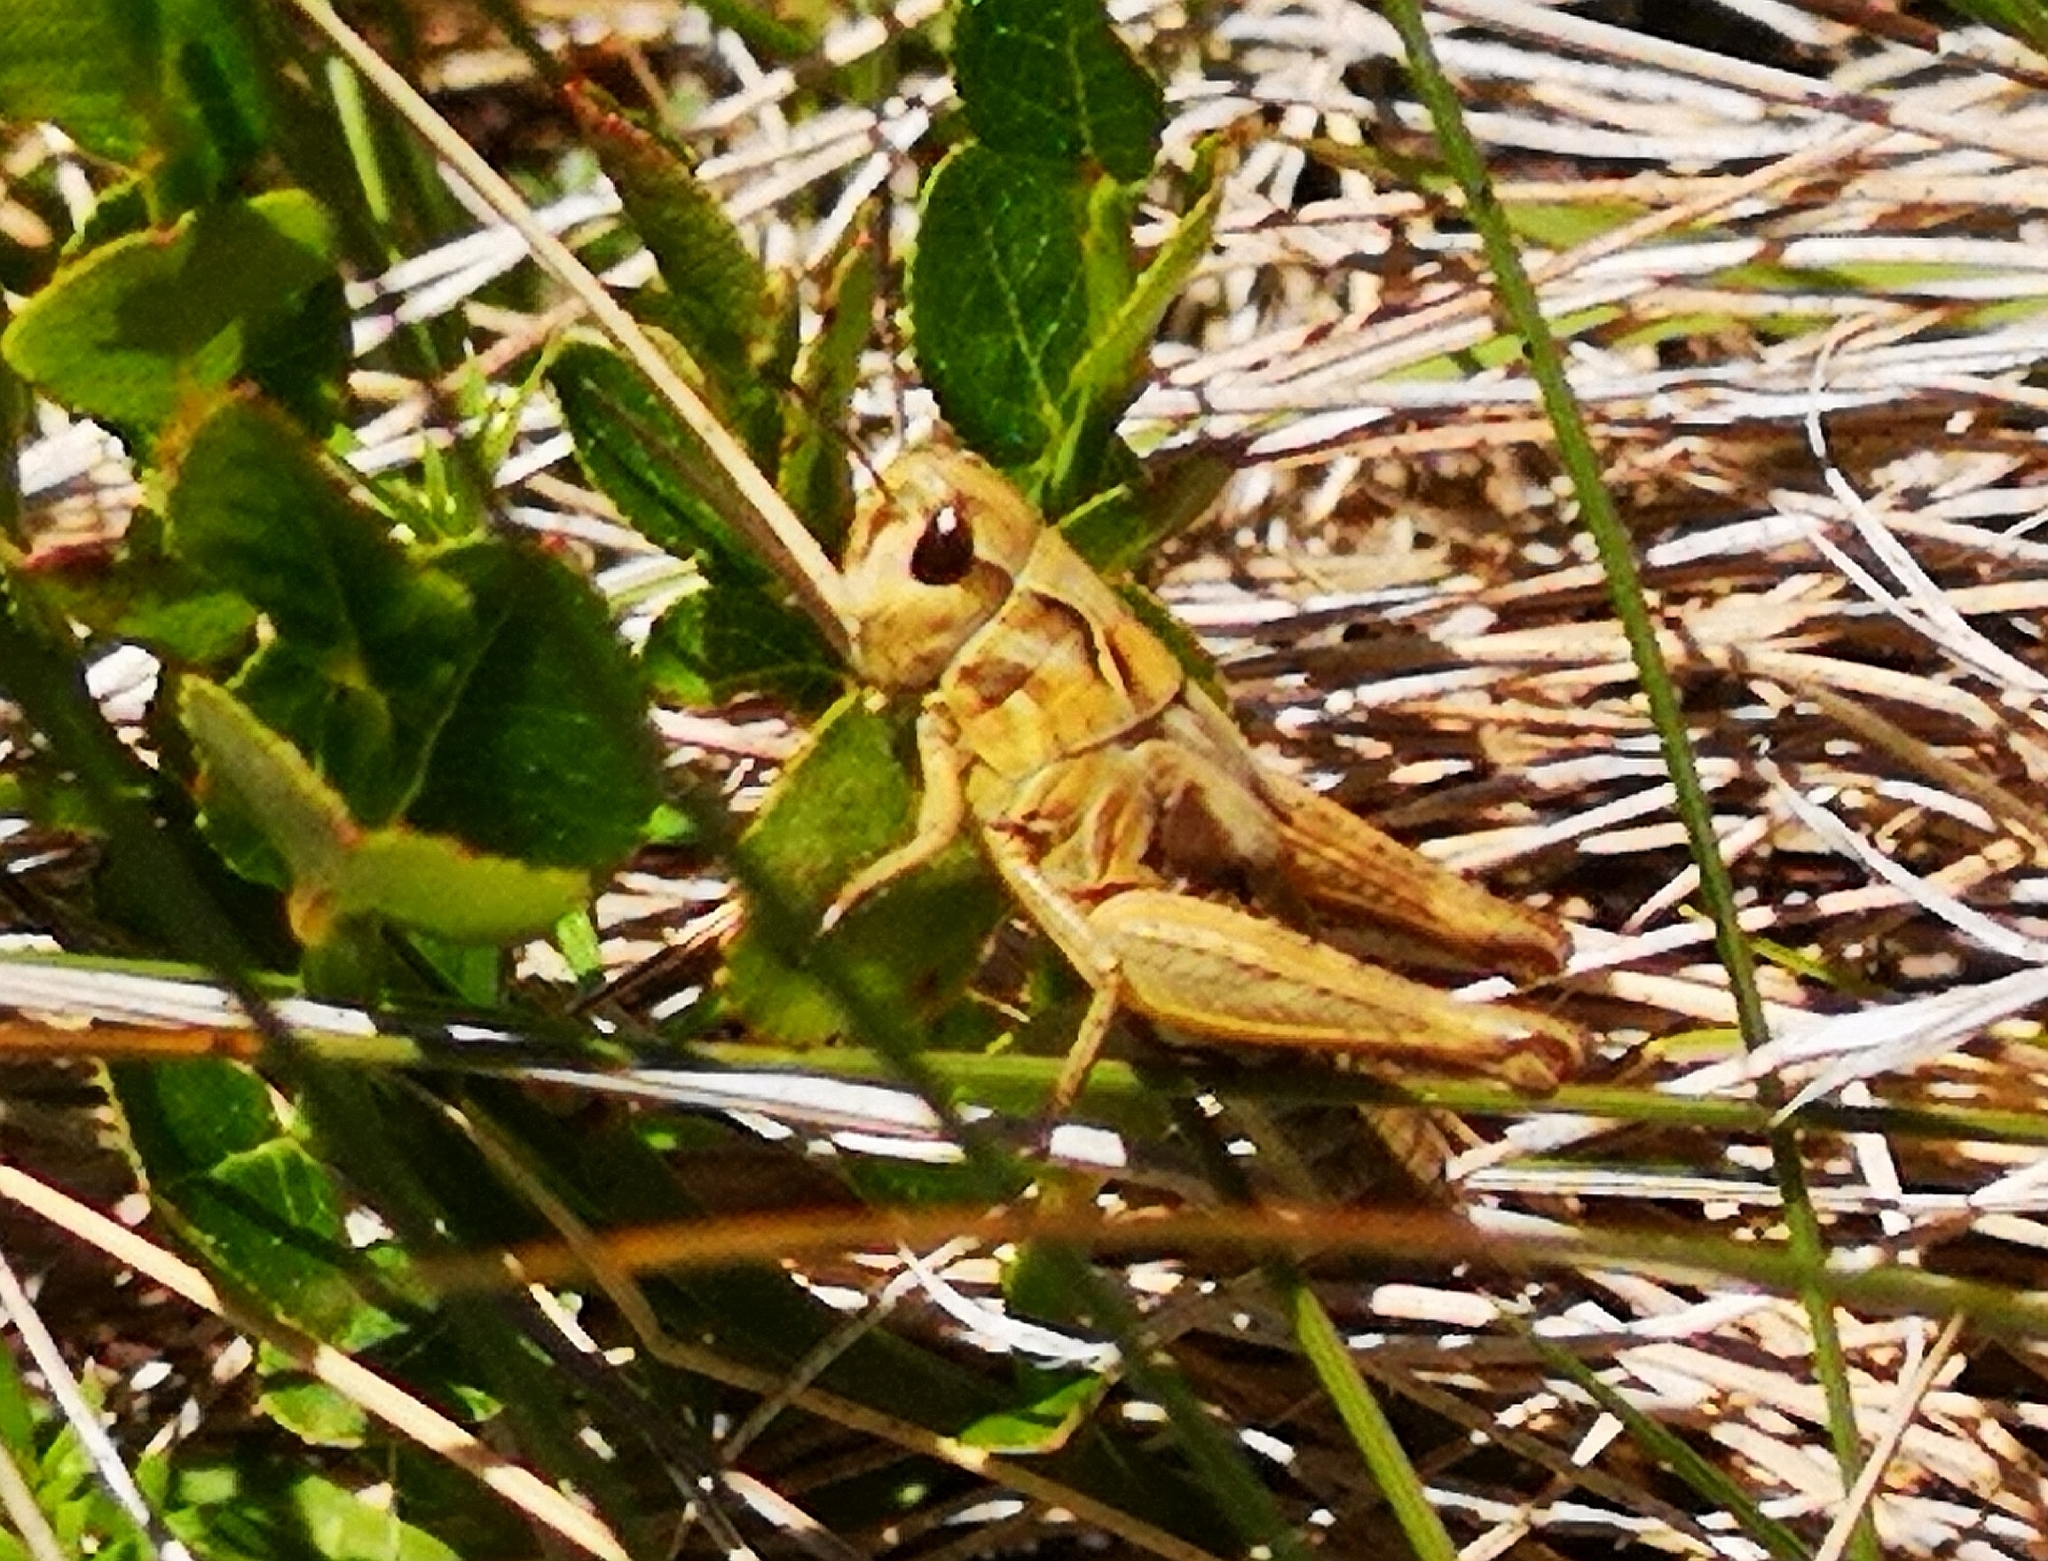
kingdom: Animalia
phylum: Arthropoda
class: Insecta
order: Orthoptera
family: Acrididae
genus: Gomphocerus
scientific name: Gomphocerus sibiricus
